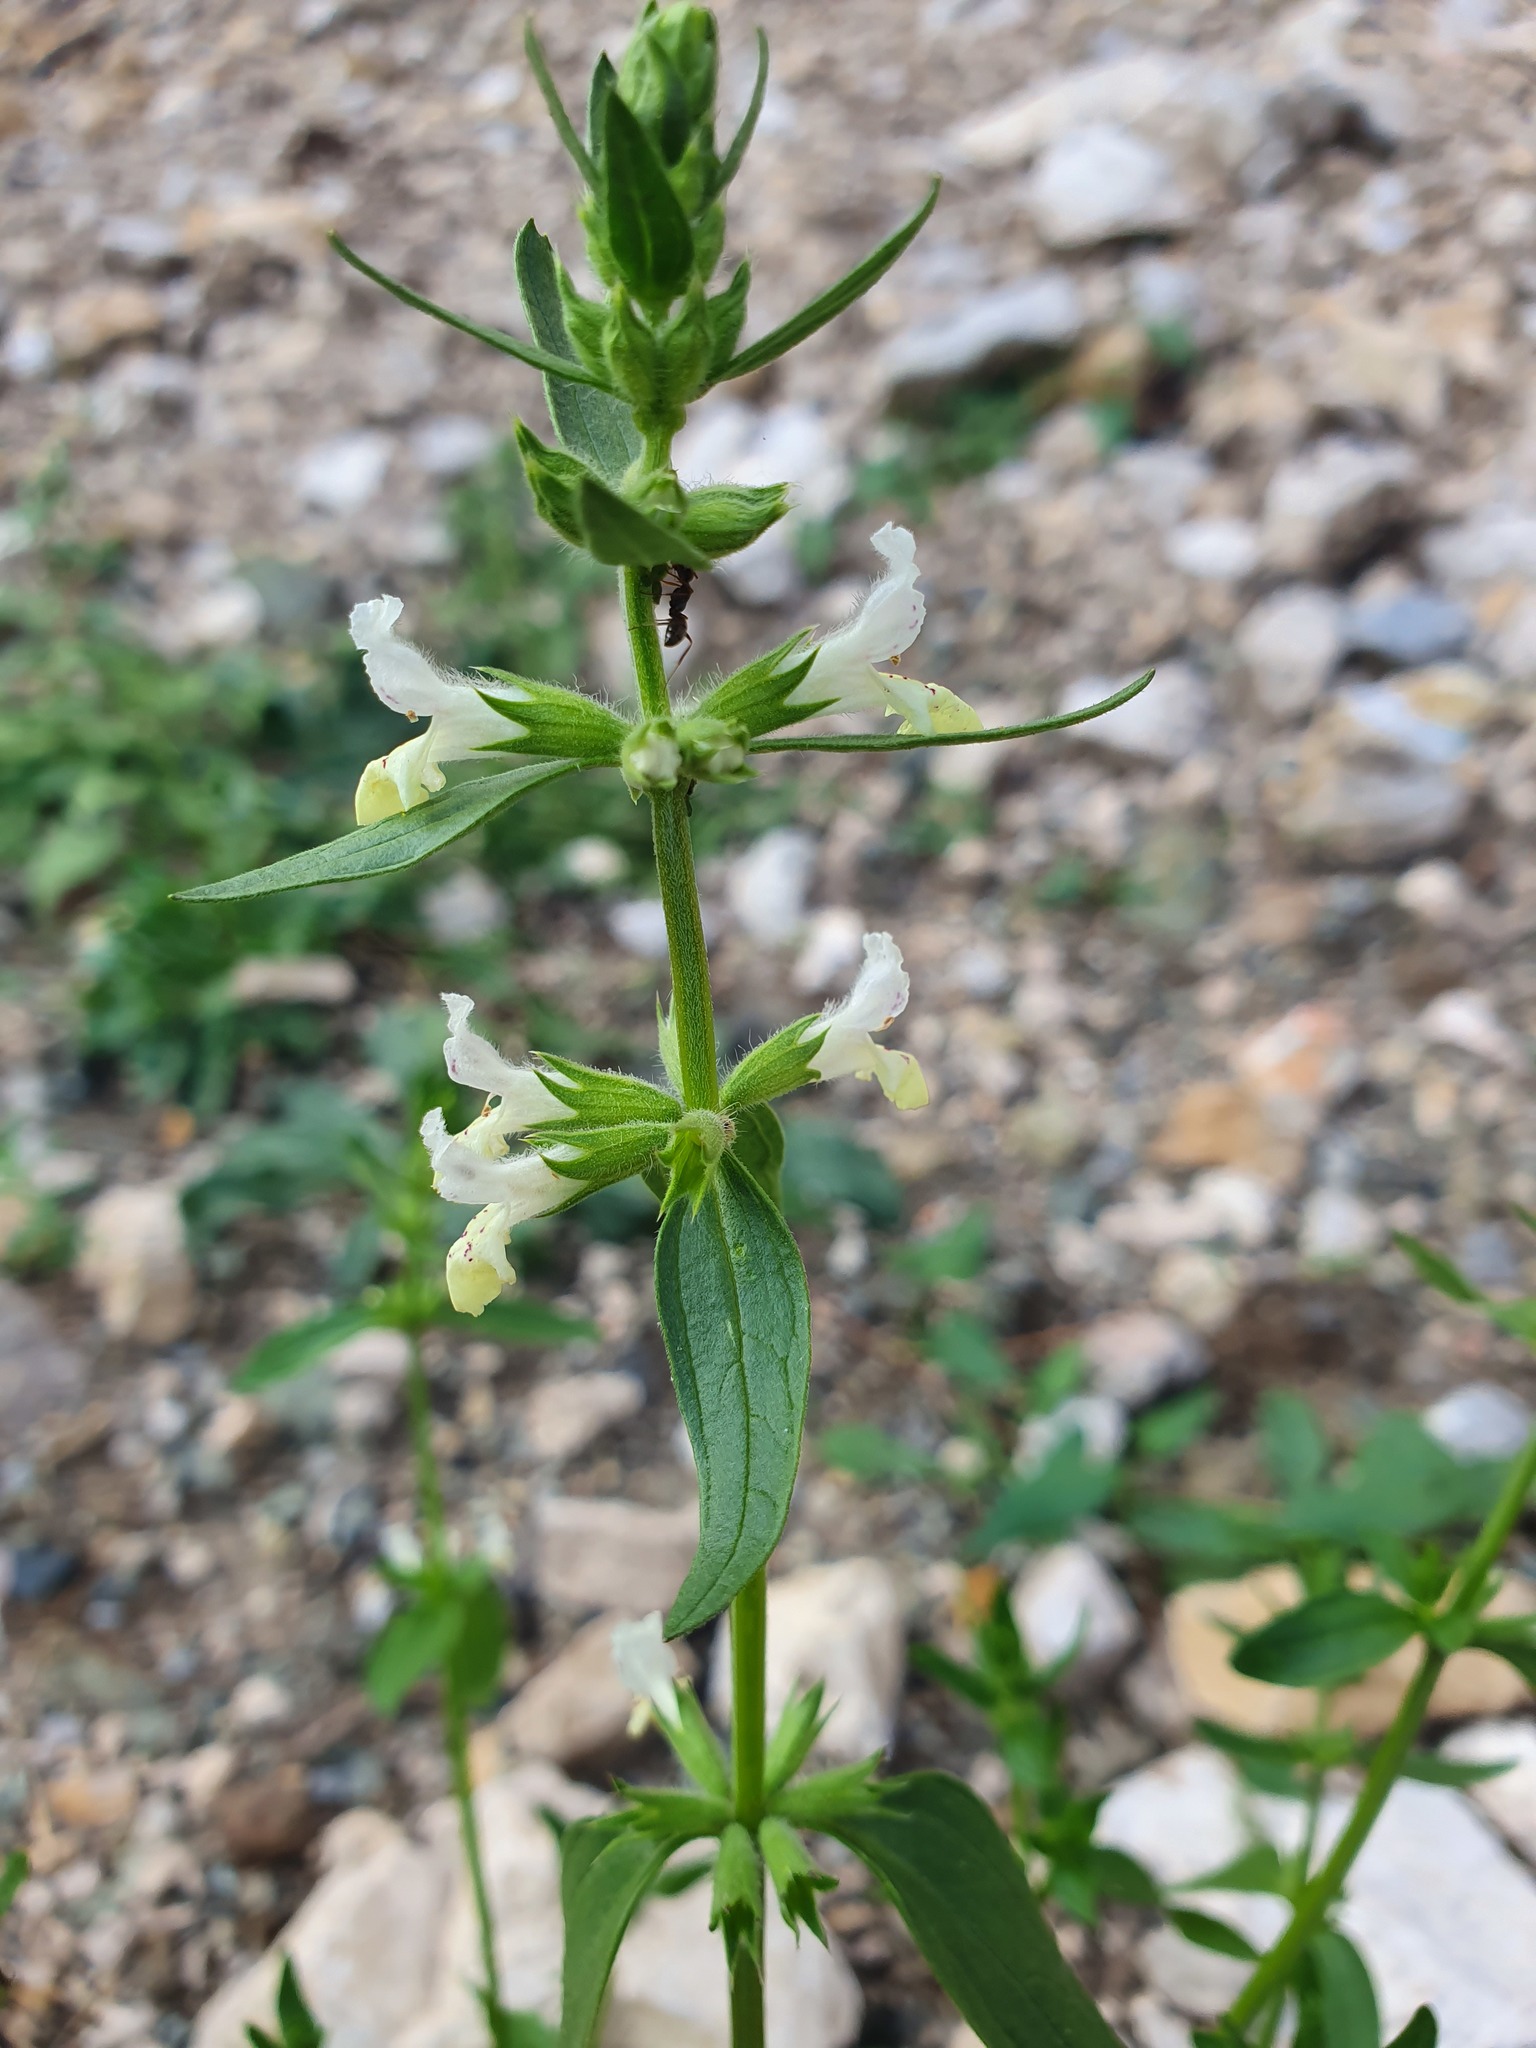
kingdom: Plantae
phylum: Tracheophyta
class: Magnoliopsida
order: Lamiales
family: Lamiaceae
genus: Stachys
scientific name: Stachys annua
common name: Annual yellow-woundwort
